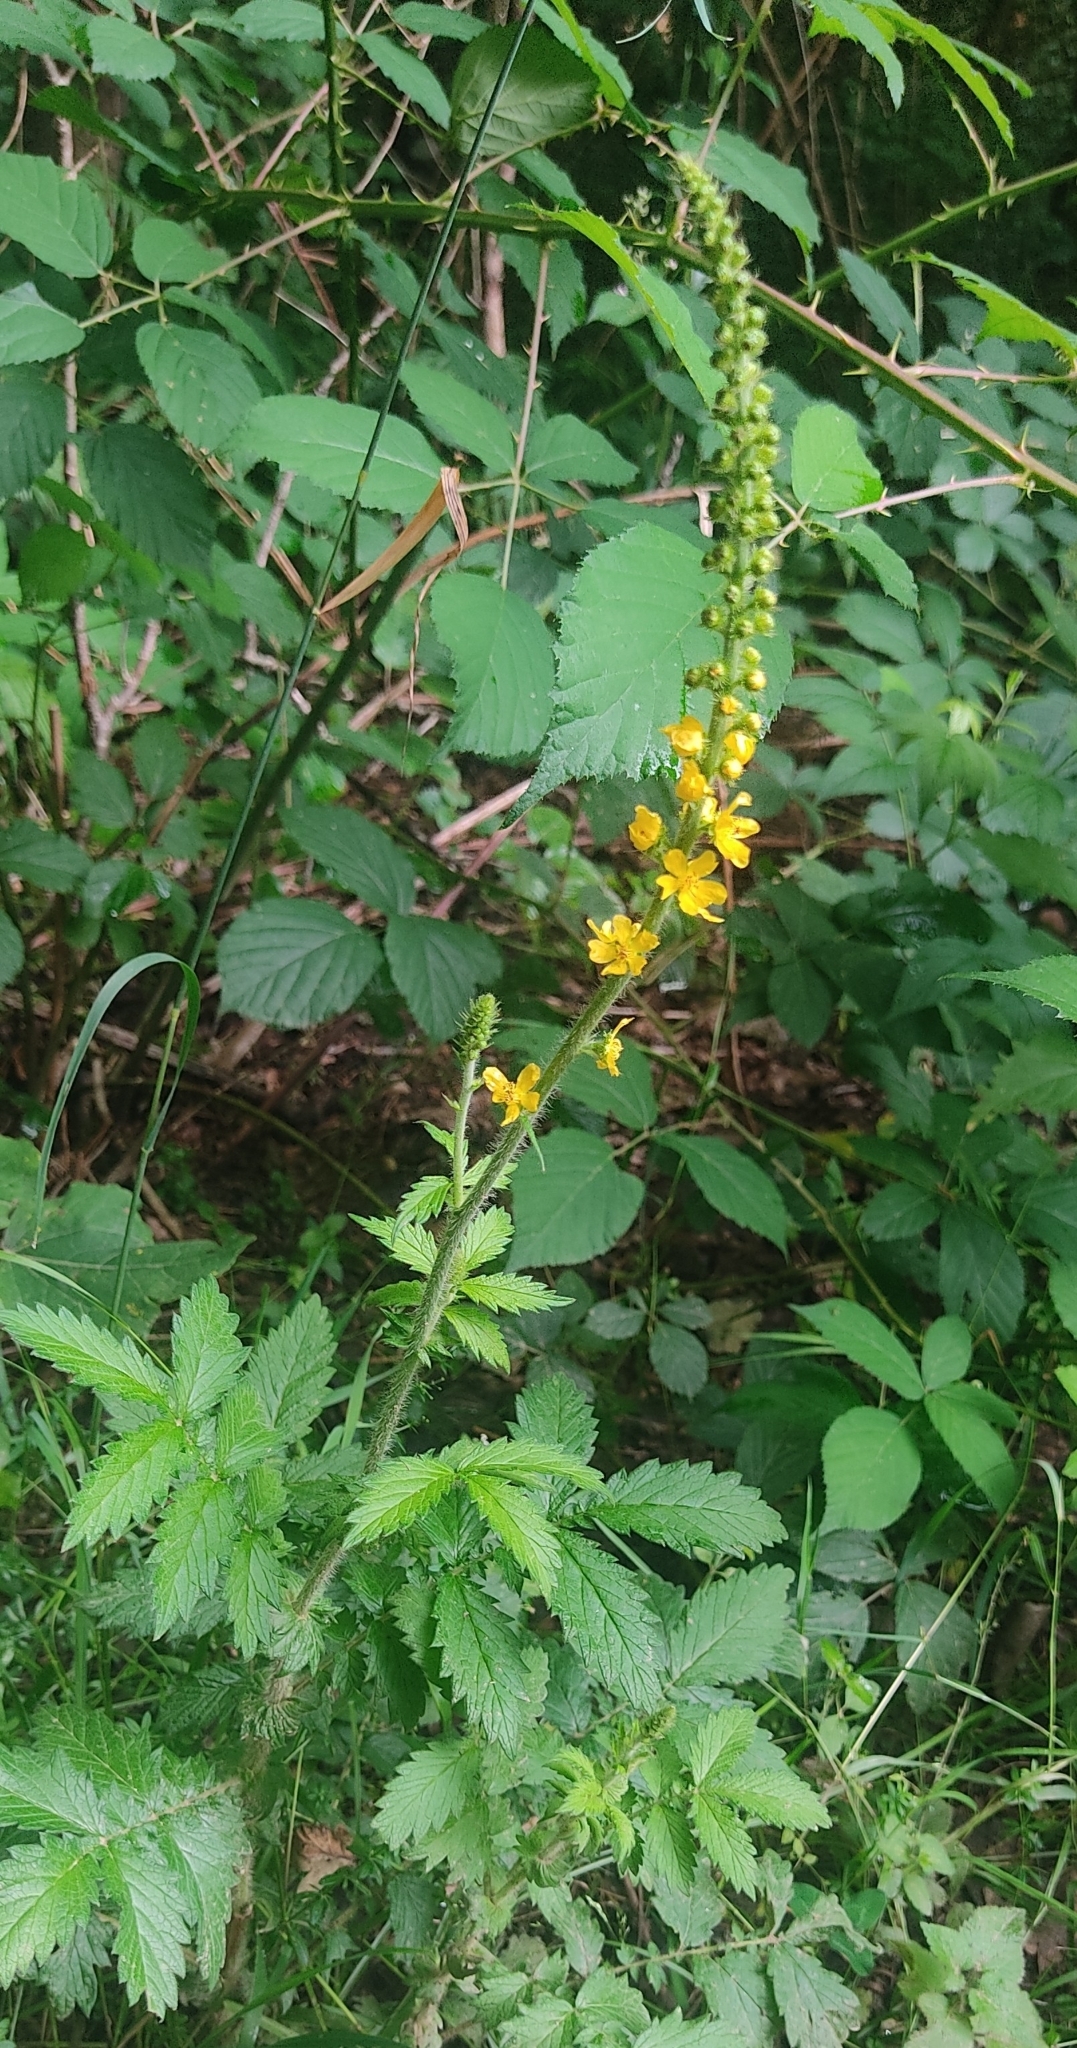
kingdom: Plantae
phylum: Tracheophyta
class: Magnoliopsida
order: Rosales
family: Rosaceae
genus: Agrimonia
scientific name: Agrimonia eupatoria
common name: Agrimony
